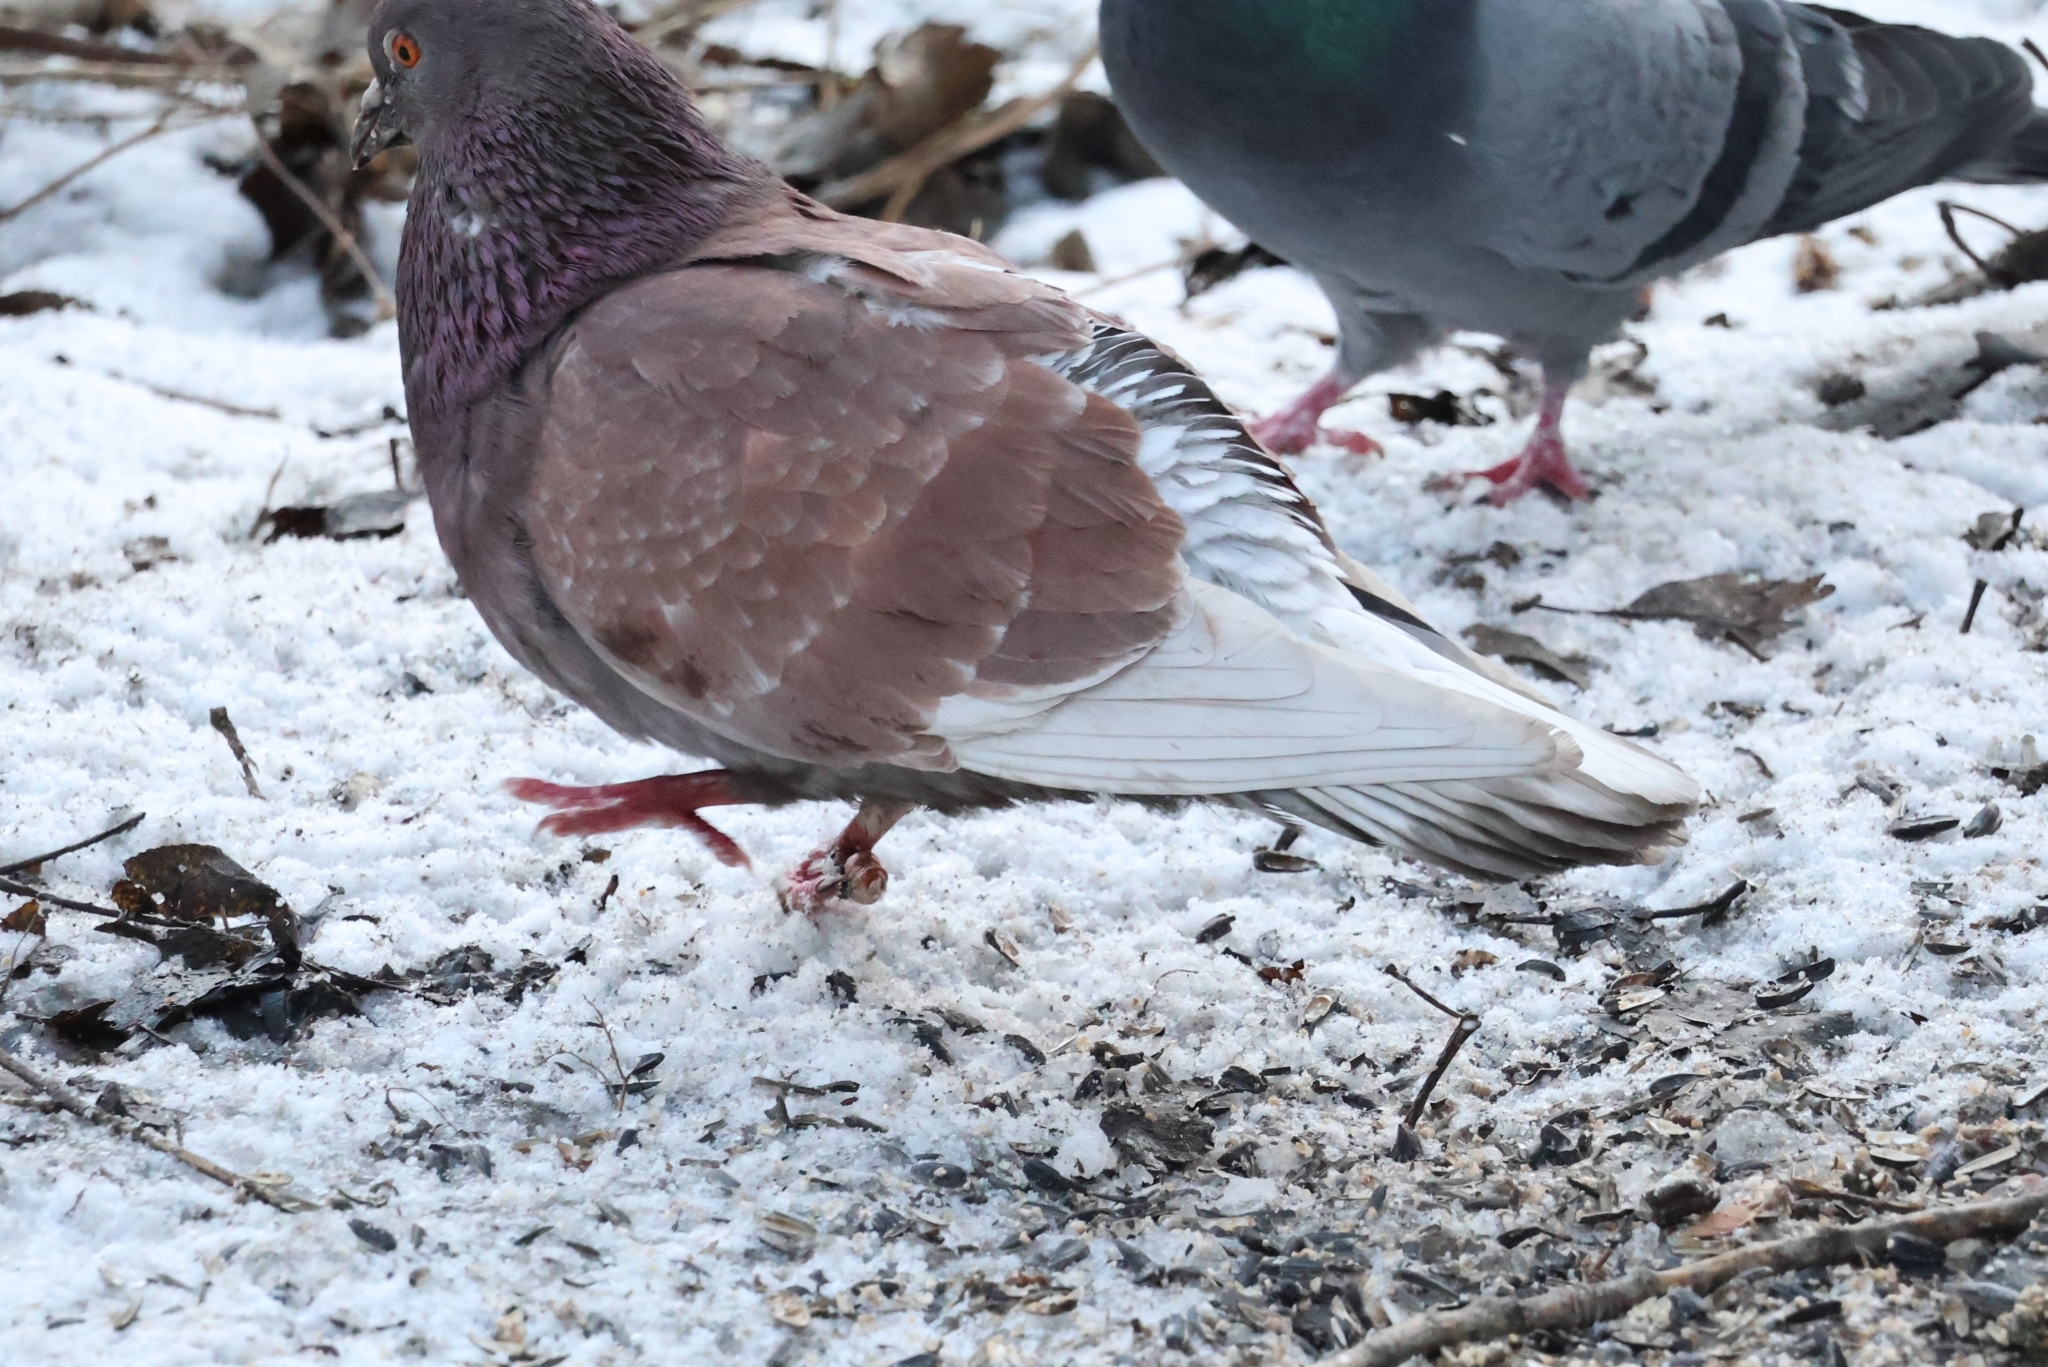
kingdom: Animalia
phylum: Chordata
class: Aves
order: Columbiformes
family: Columbidae
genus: Columba
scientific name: Columba livia
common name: Rock pigeon
